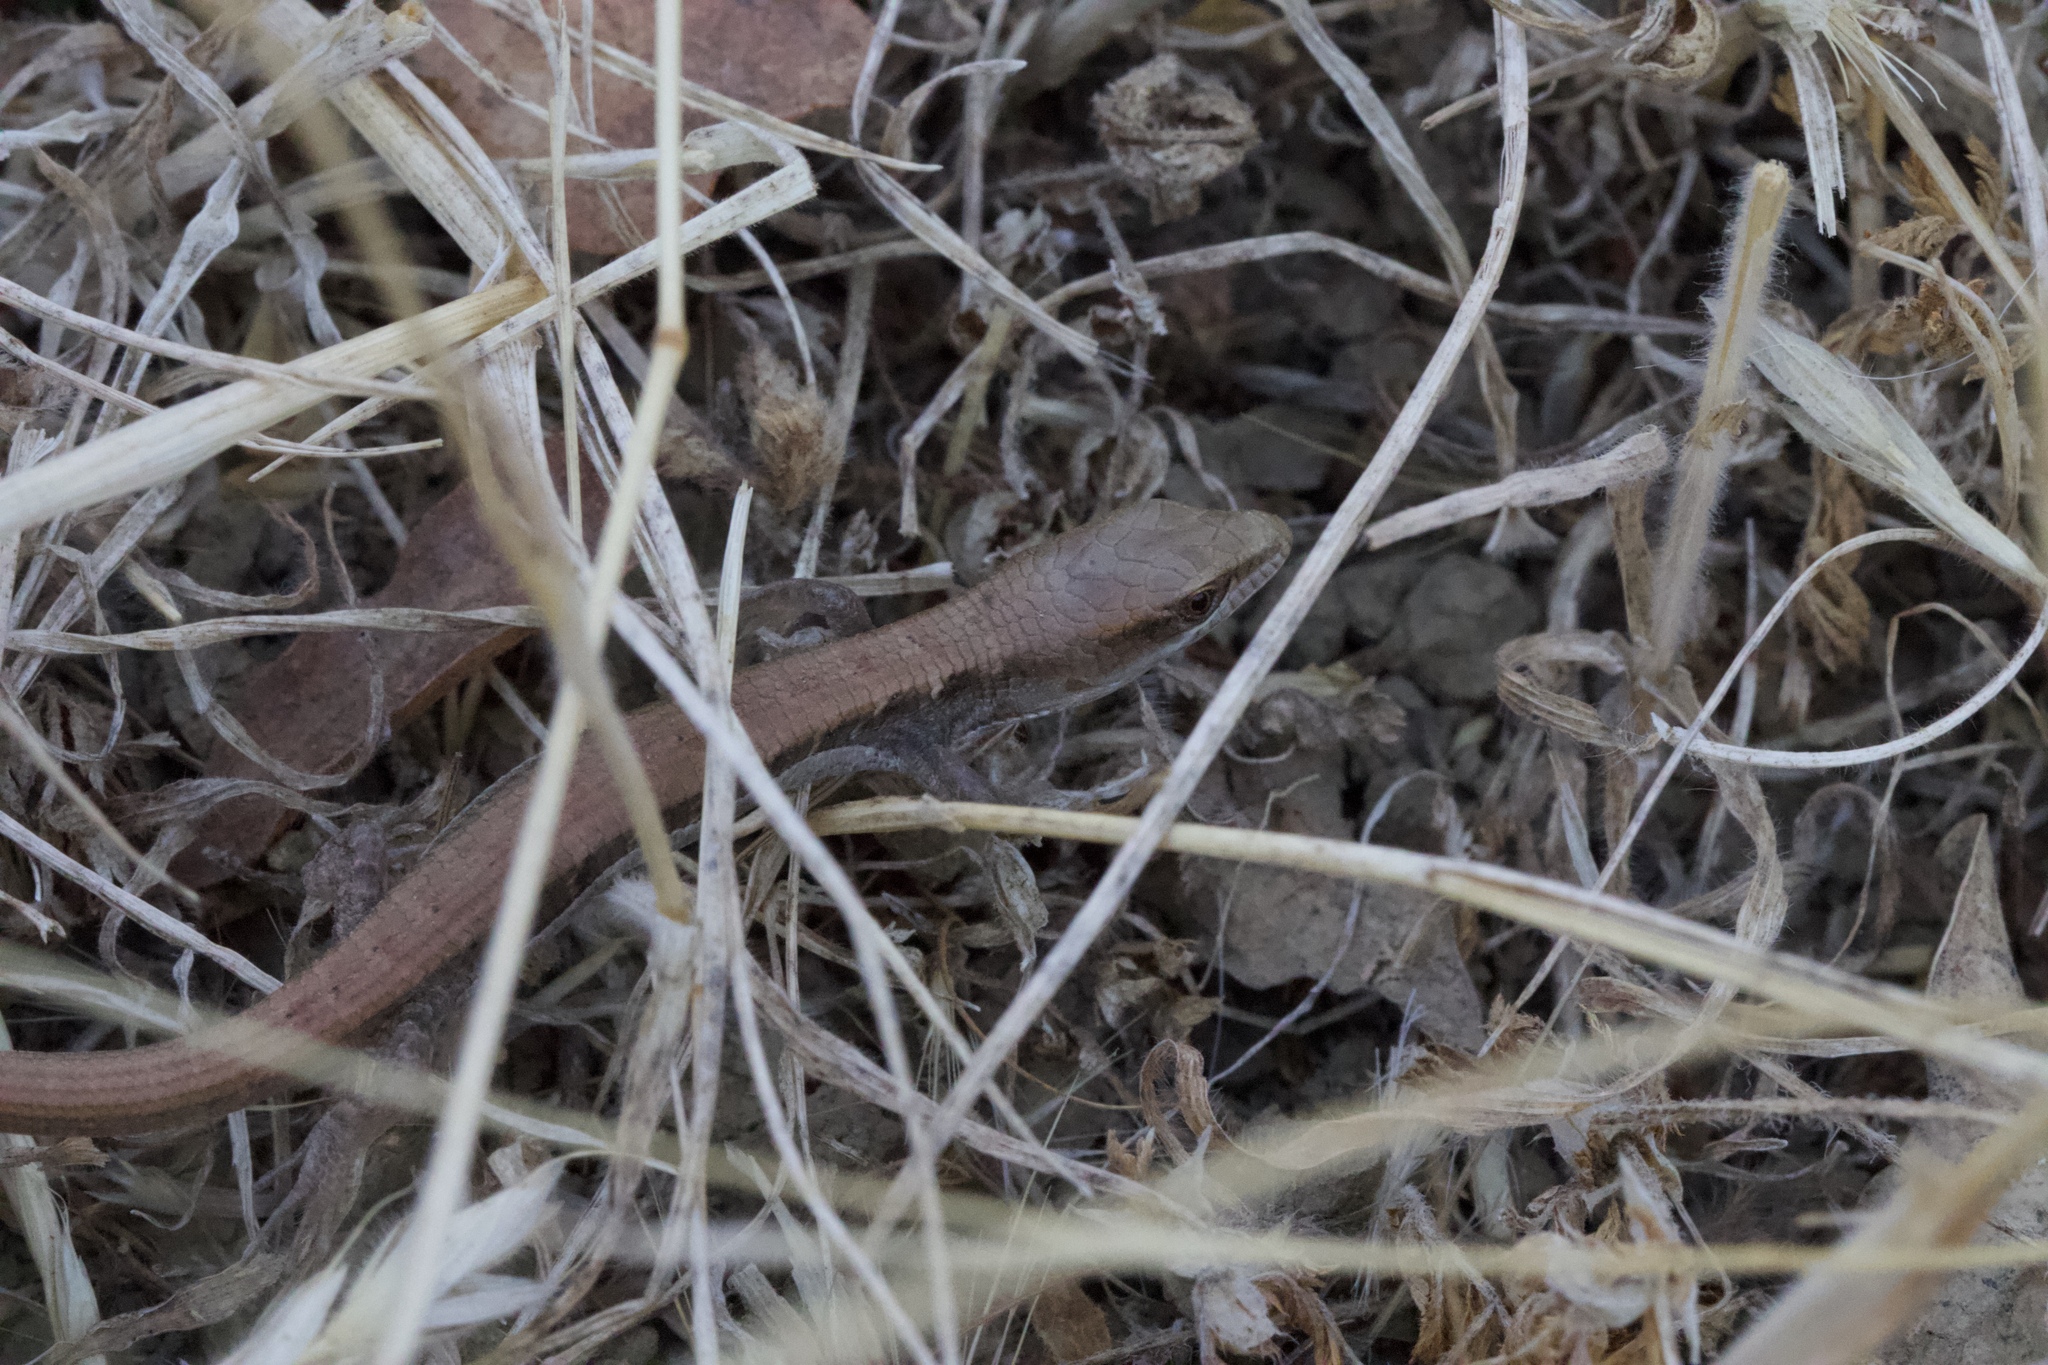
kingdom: Animalia
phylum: Chordata
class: Squamata
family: Anguidae
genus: Elgaria
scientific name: Elgaria multicarinata
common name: Southern alligator lizard
